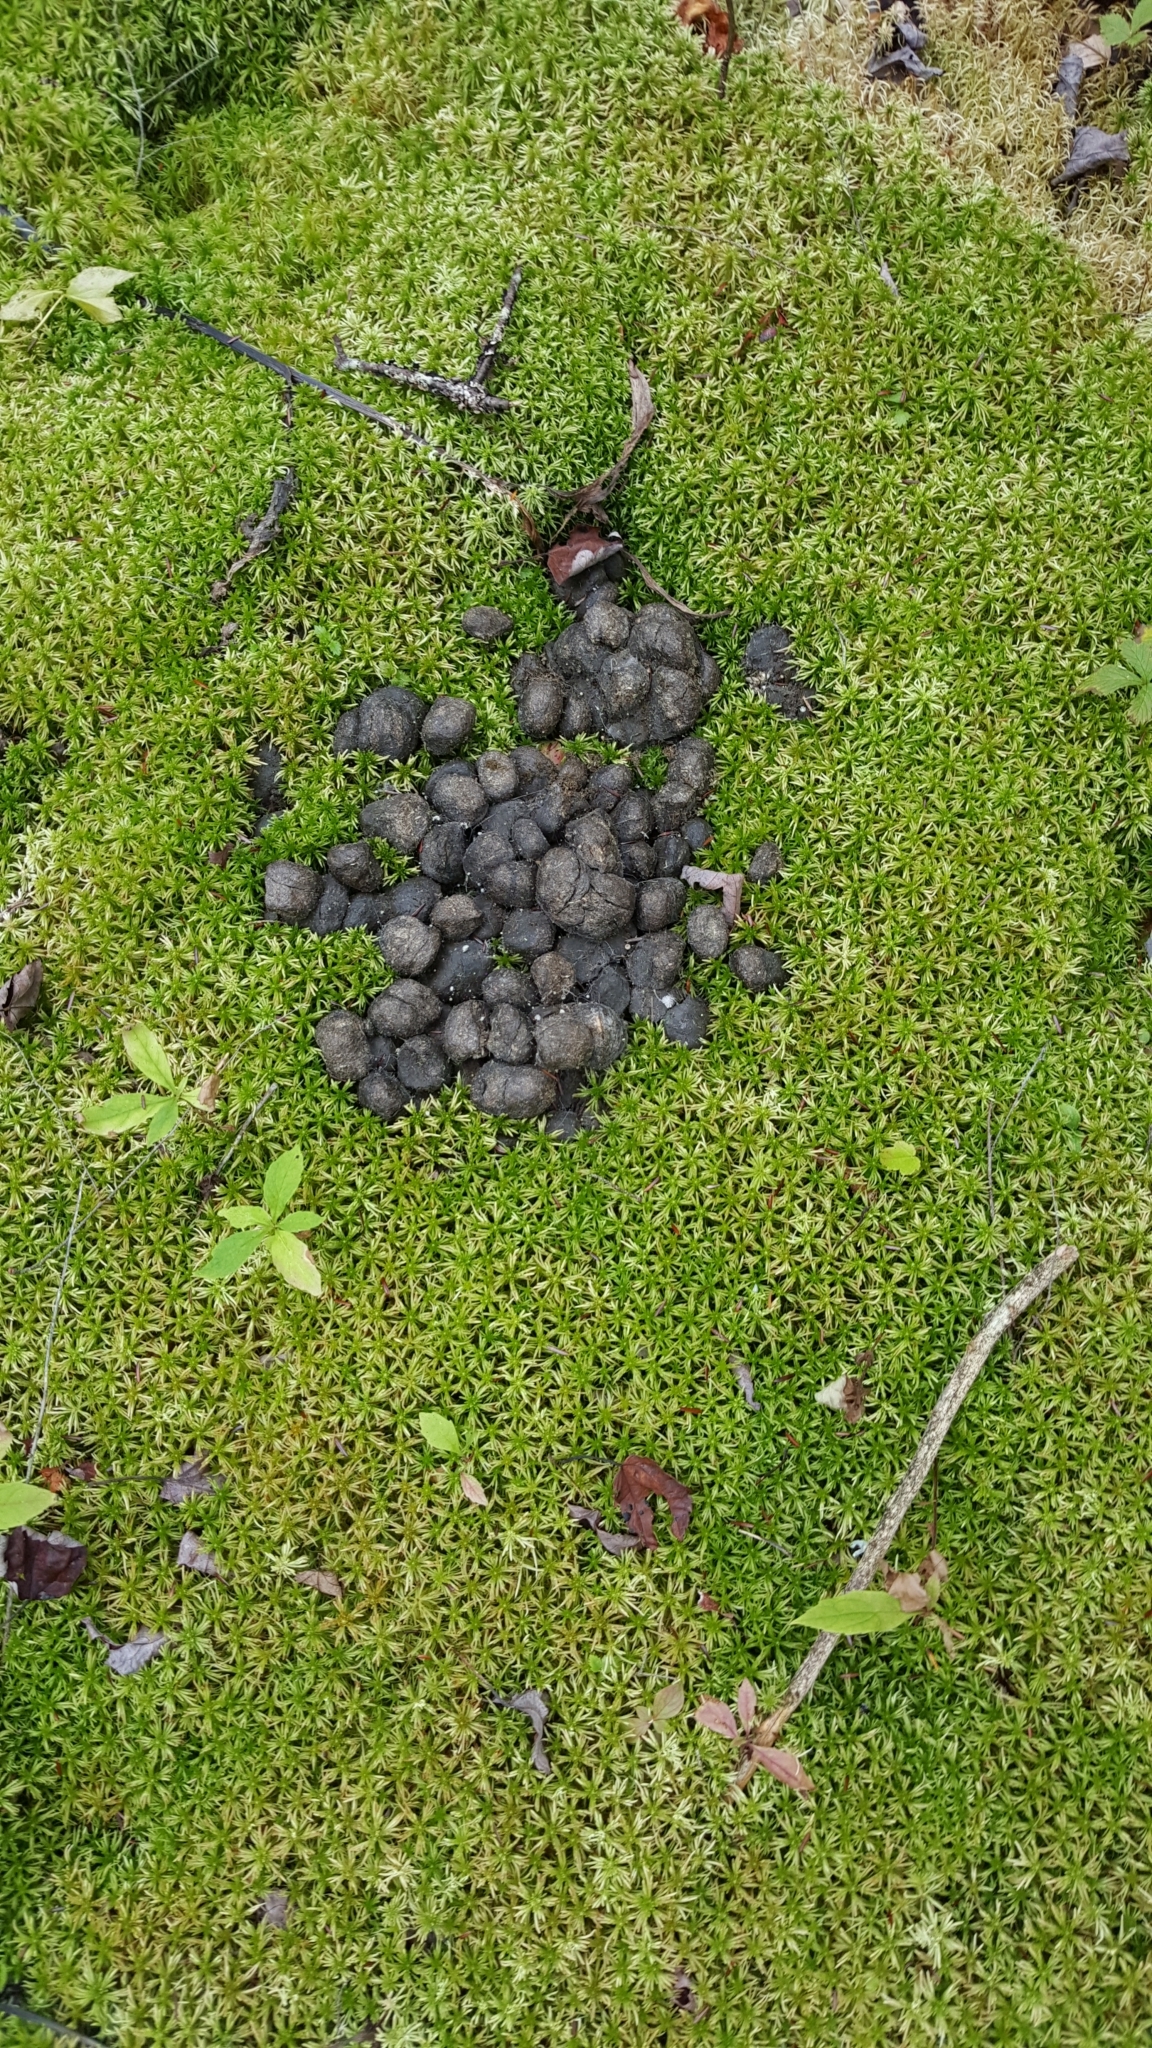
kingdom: Animalia
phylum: Chordata
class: Mammalia
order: Artiodactyla
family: Cervidae
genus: Alces
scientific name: Alces alces
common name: Moose
